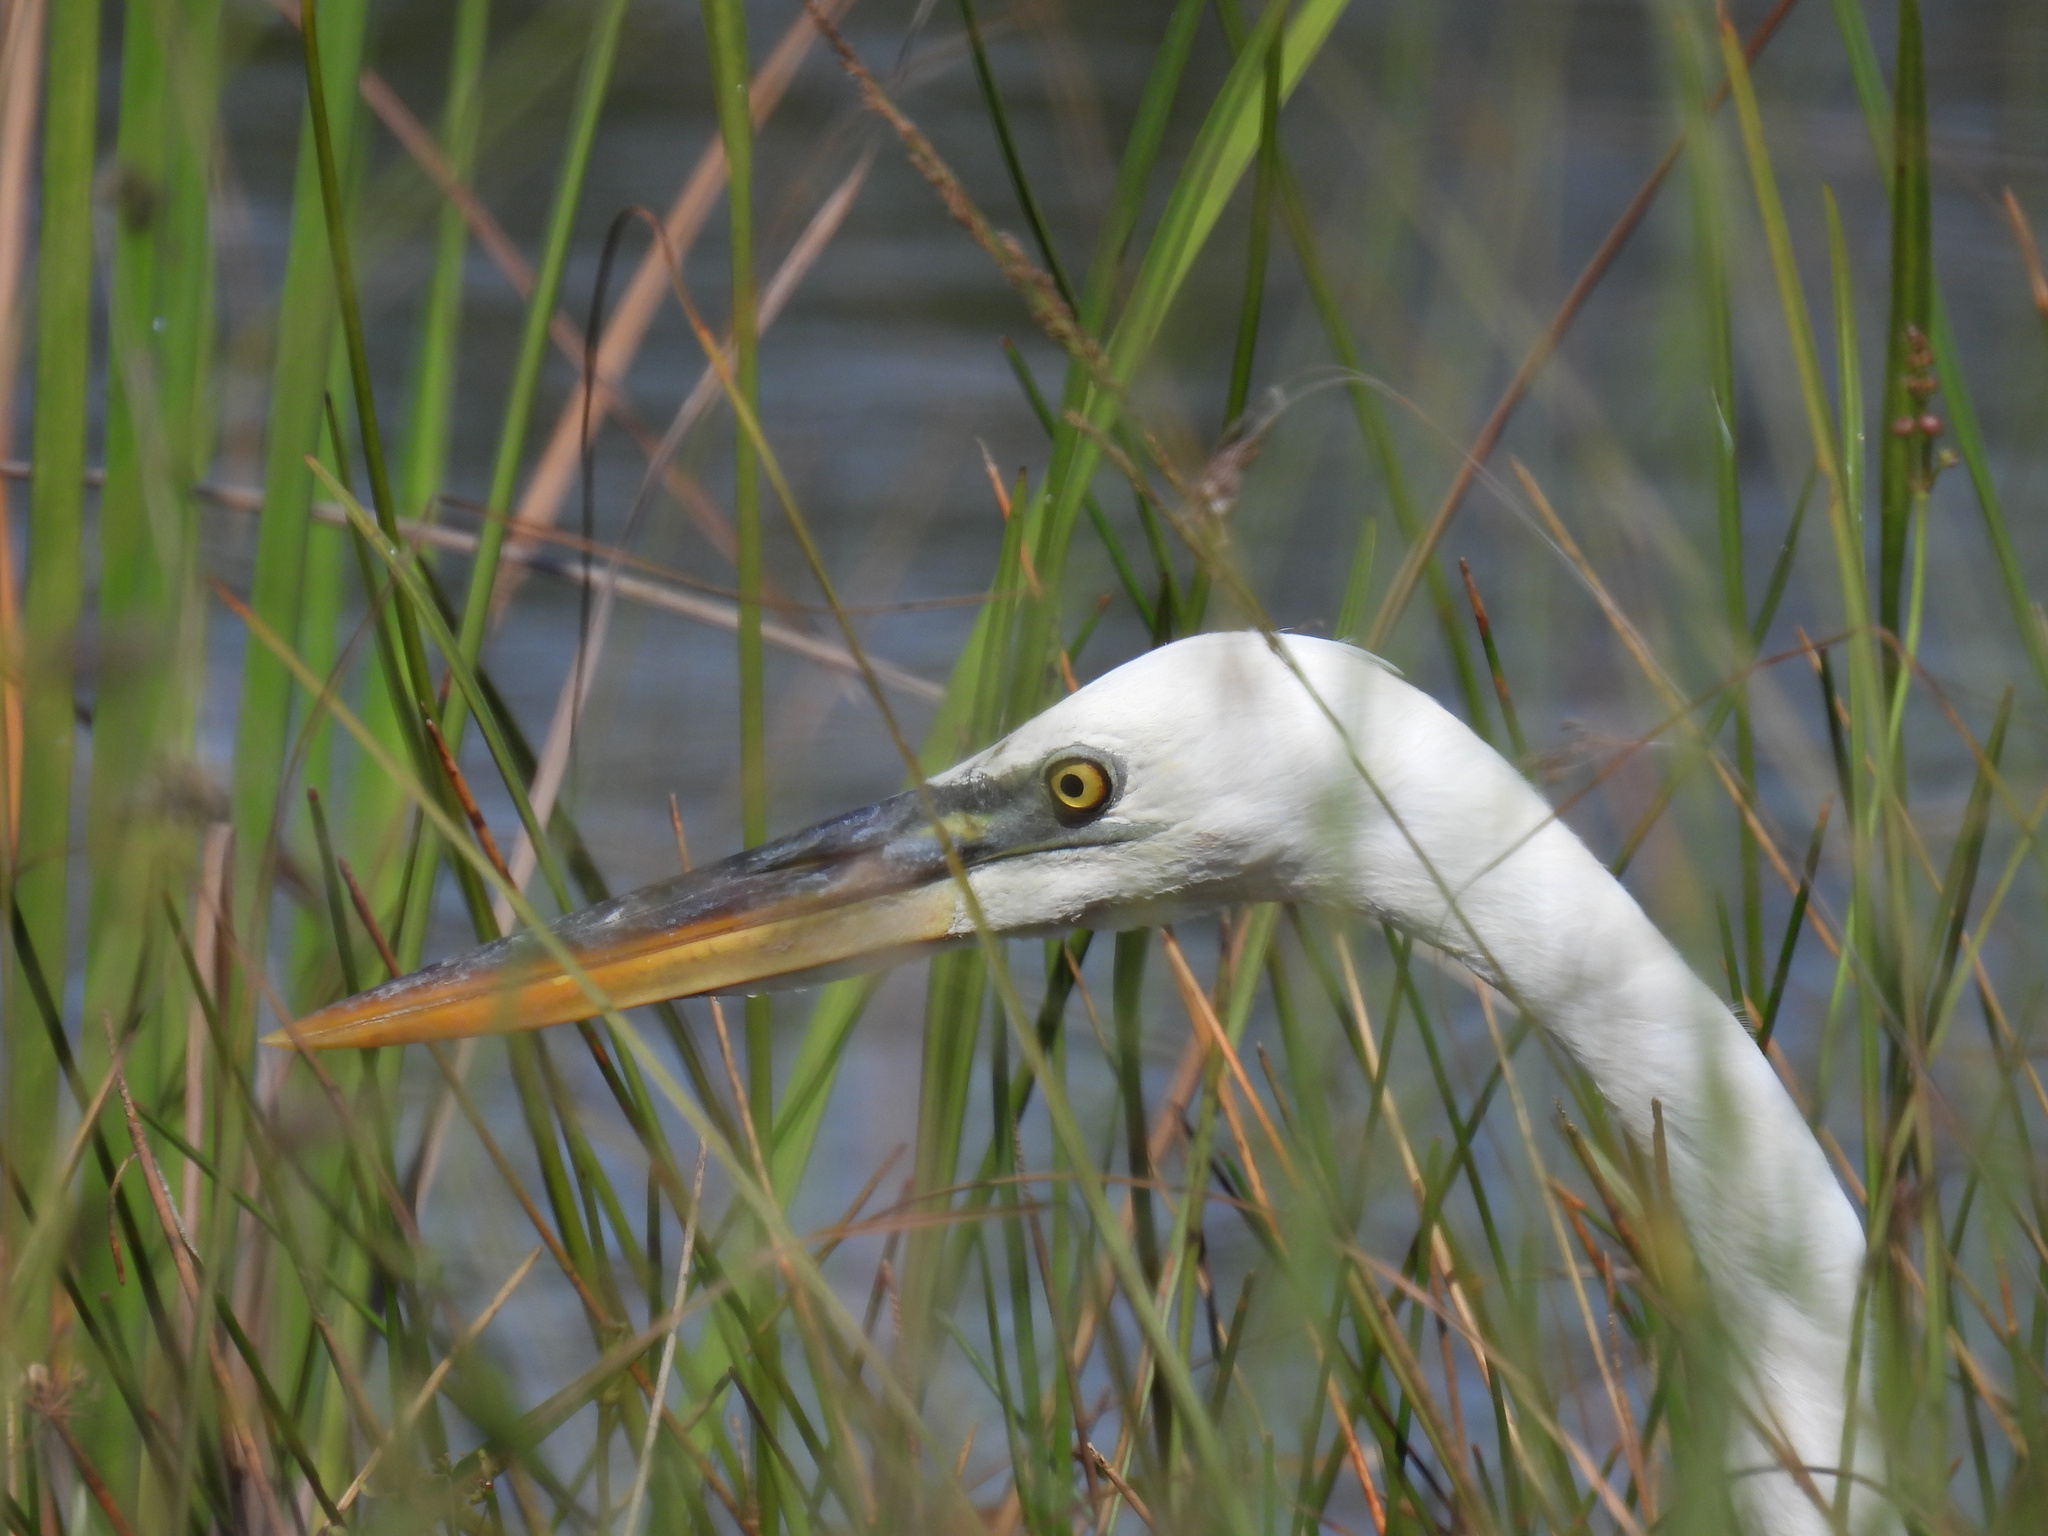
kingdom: Animalia
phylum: Chordata
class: Aves
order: Pelecaniformes
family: Ardeidae
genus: Ardea
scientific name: Ardea herodias
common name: Great blue heron
